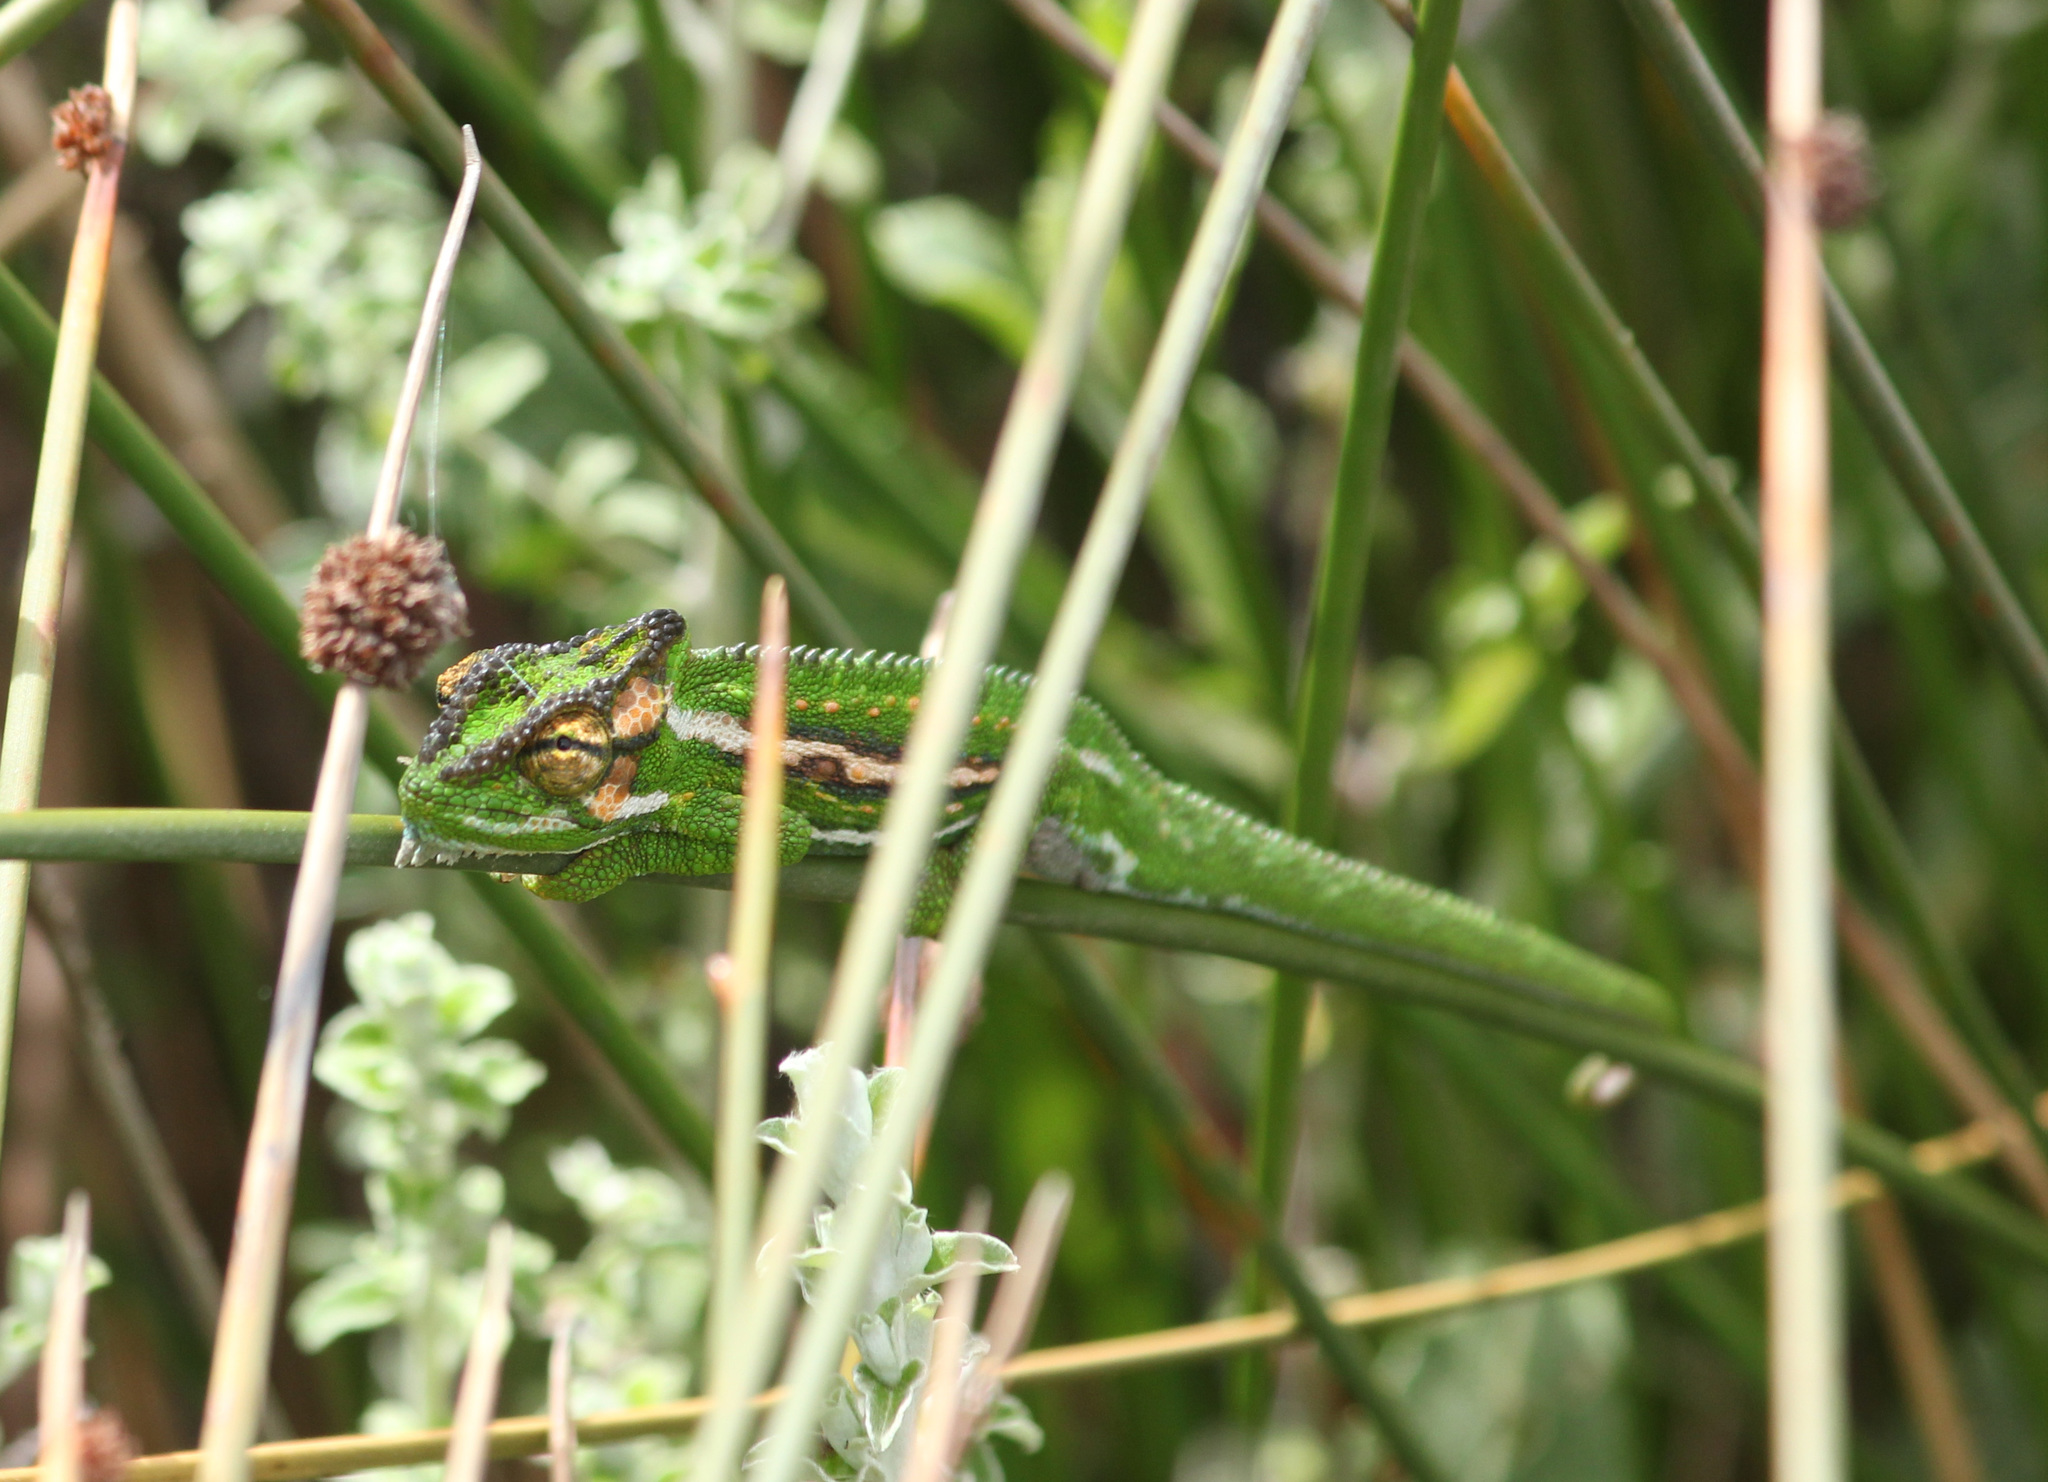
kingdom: Animalia
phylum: Chordata
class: Squamata
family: Chamaeleonidae
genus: Bradypodion
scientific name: Bradypodion pumilum
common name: Cape dwarf chameleon
